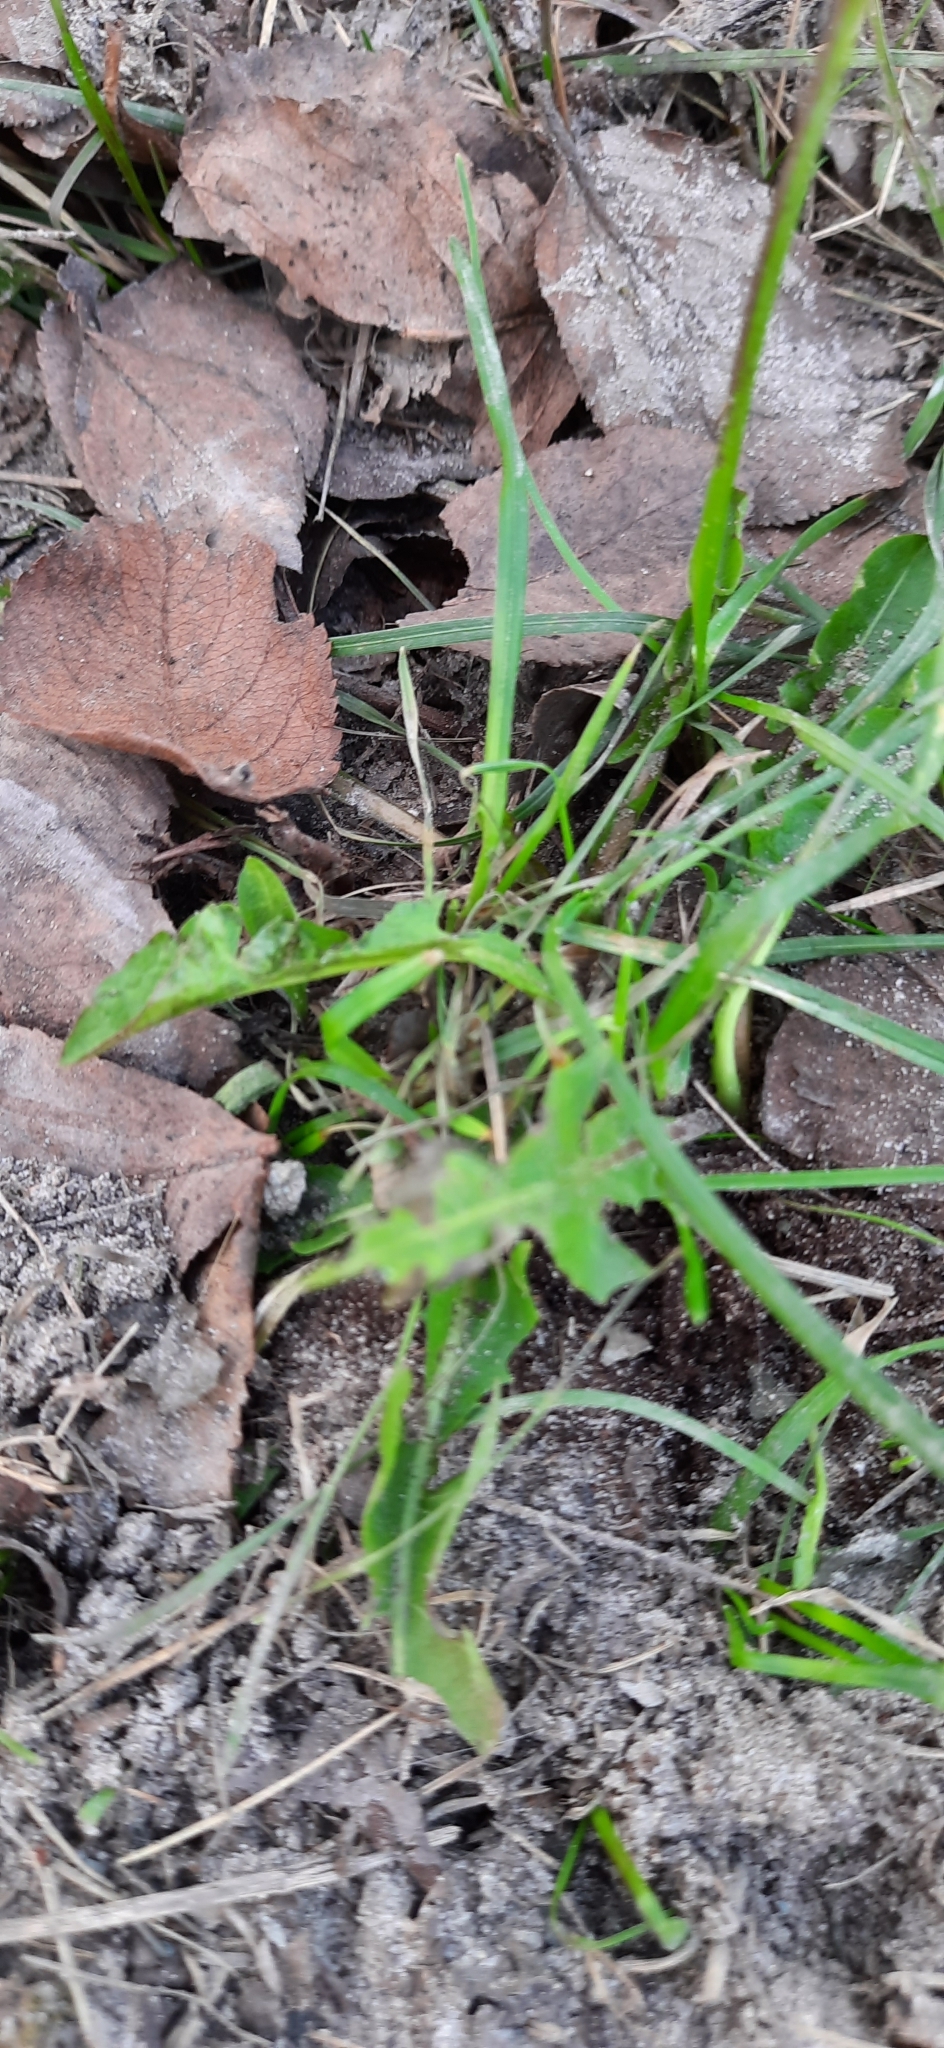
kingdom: Plantae
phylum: Tracheophyta
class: Magnoliopsida
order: Asterales
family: Asteraceae
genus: Taraxacum
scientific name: Taraxacum officinale
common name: Common dandelion
